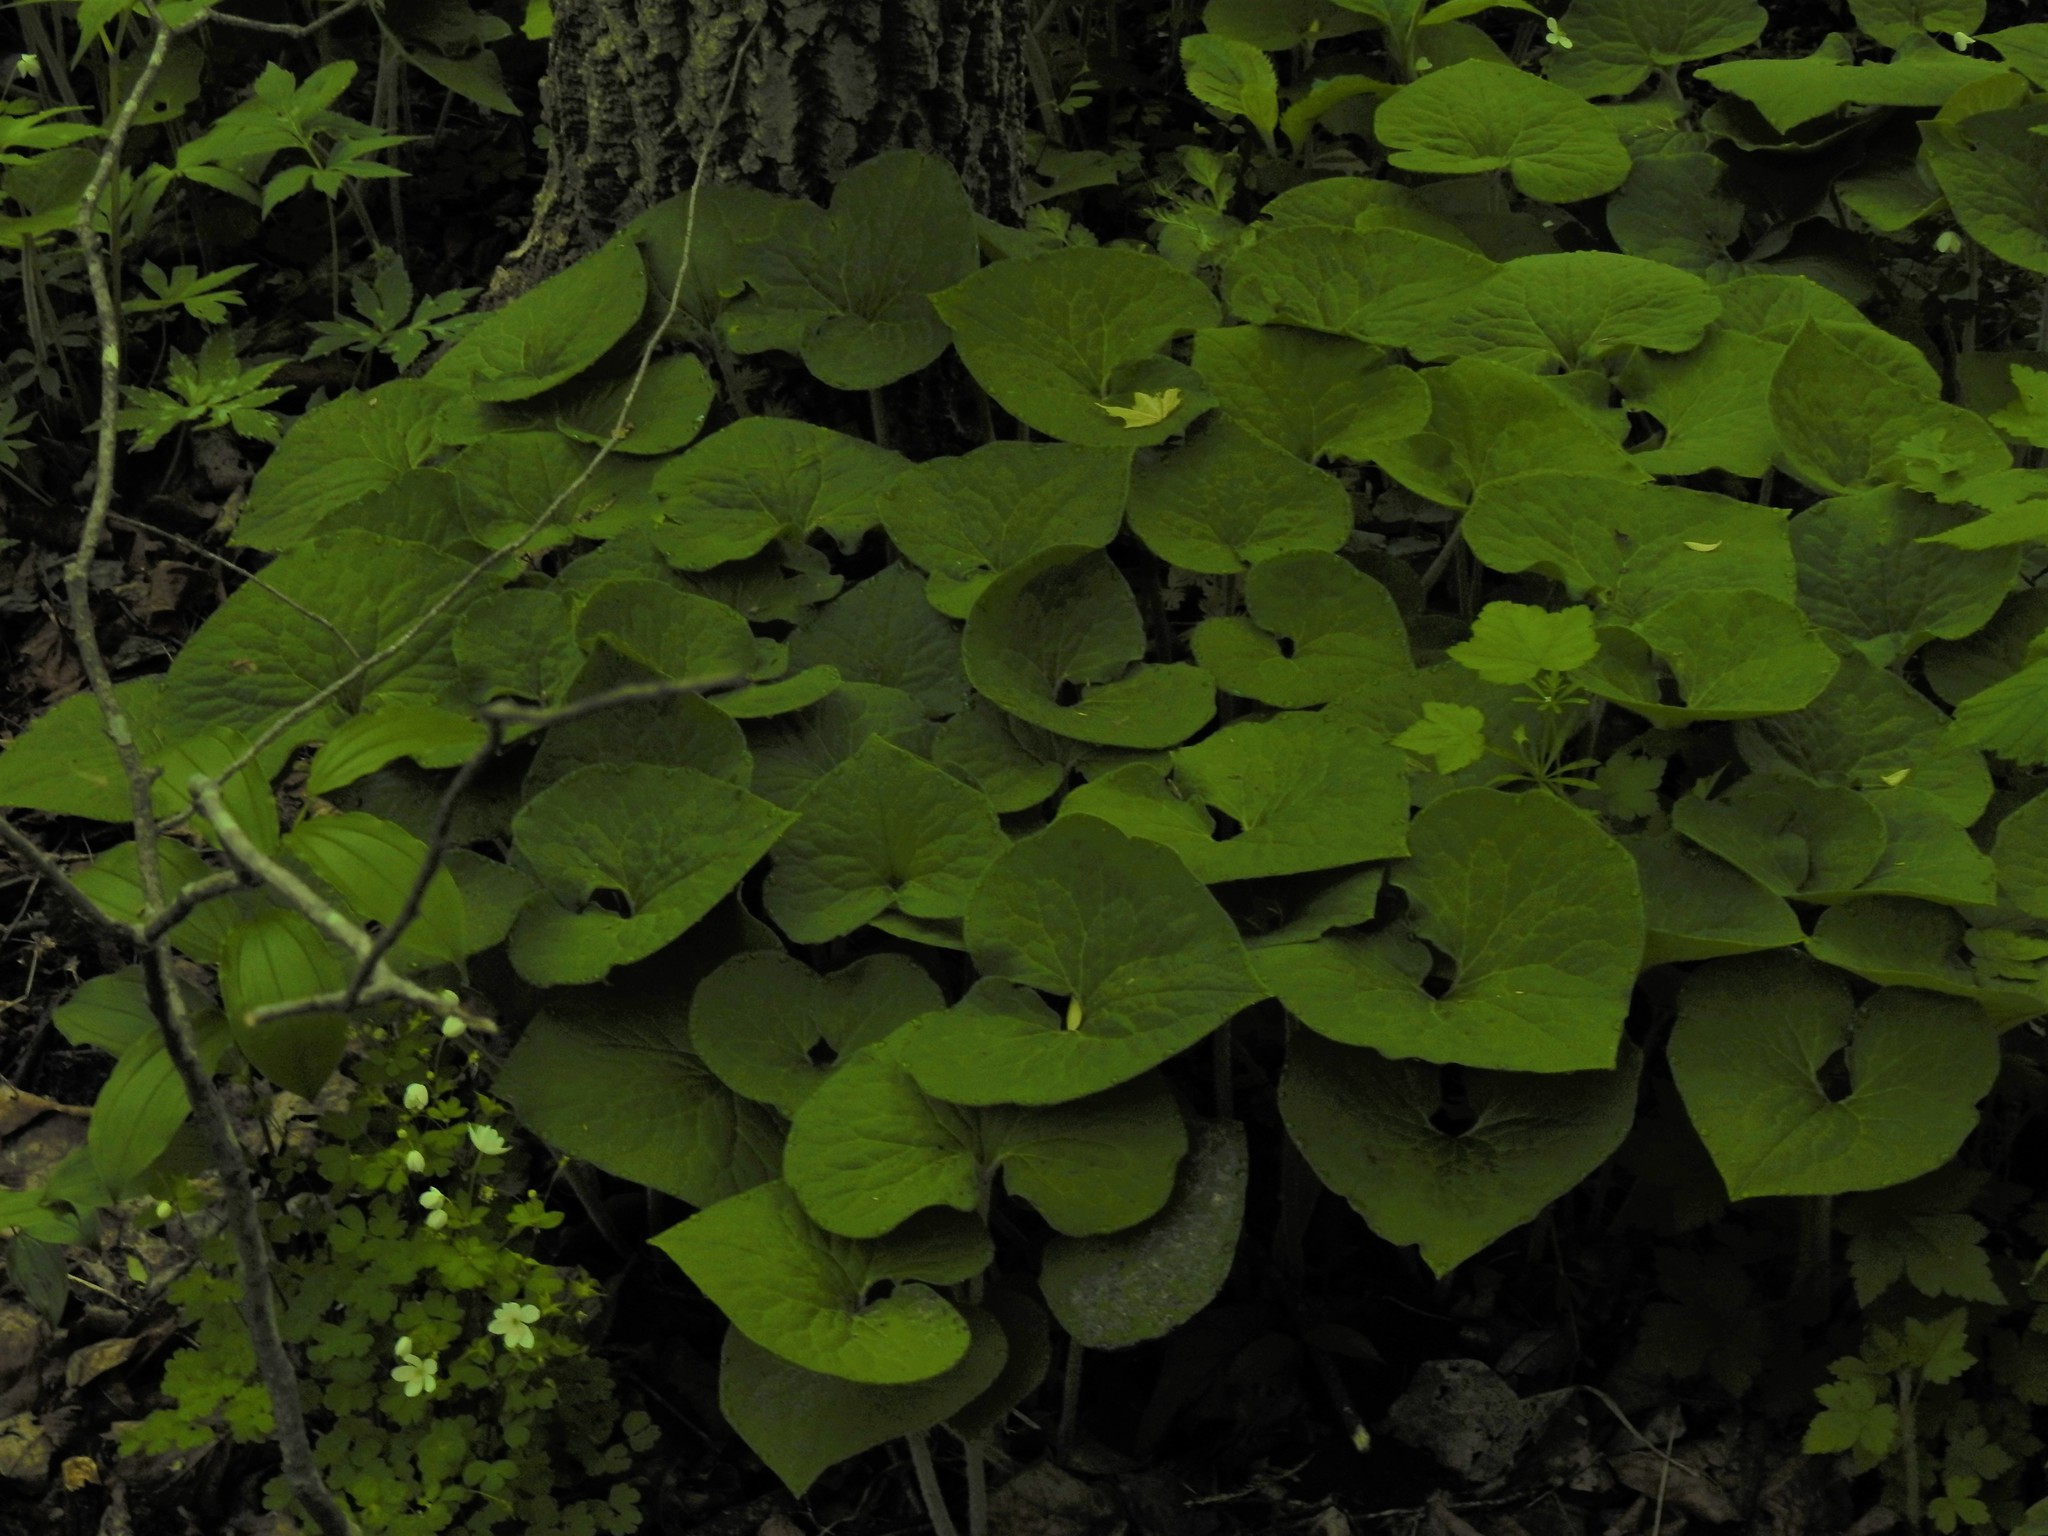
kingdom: Plantae
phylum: Tracheophyta
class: Magnoliopsida
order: Piperales
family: Aristolochiaceae
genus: Asarum
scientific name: Asarum canadense
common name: Wild ginger
